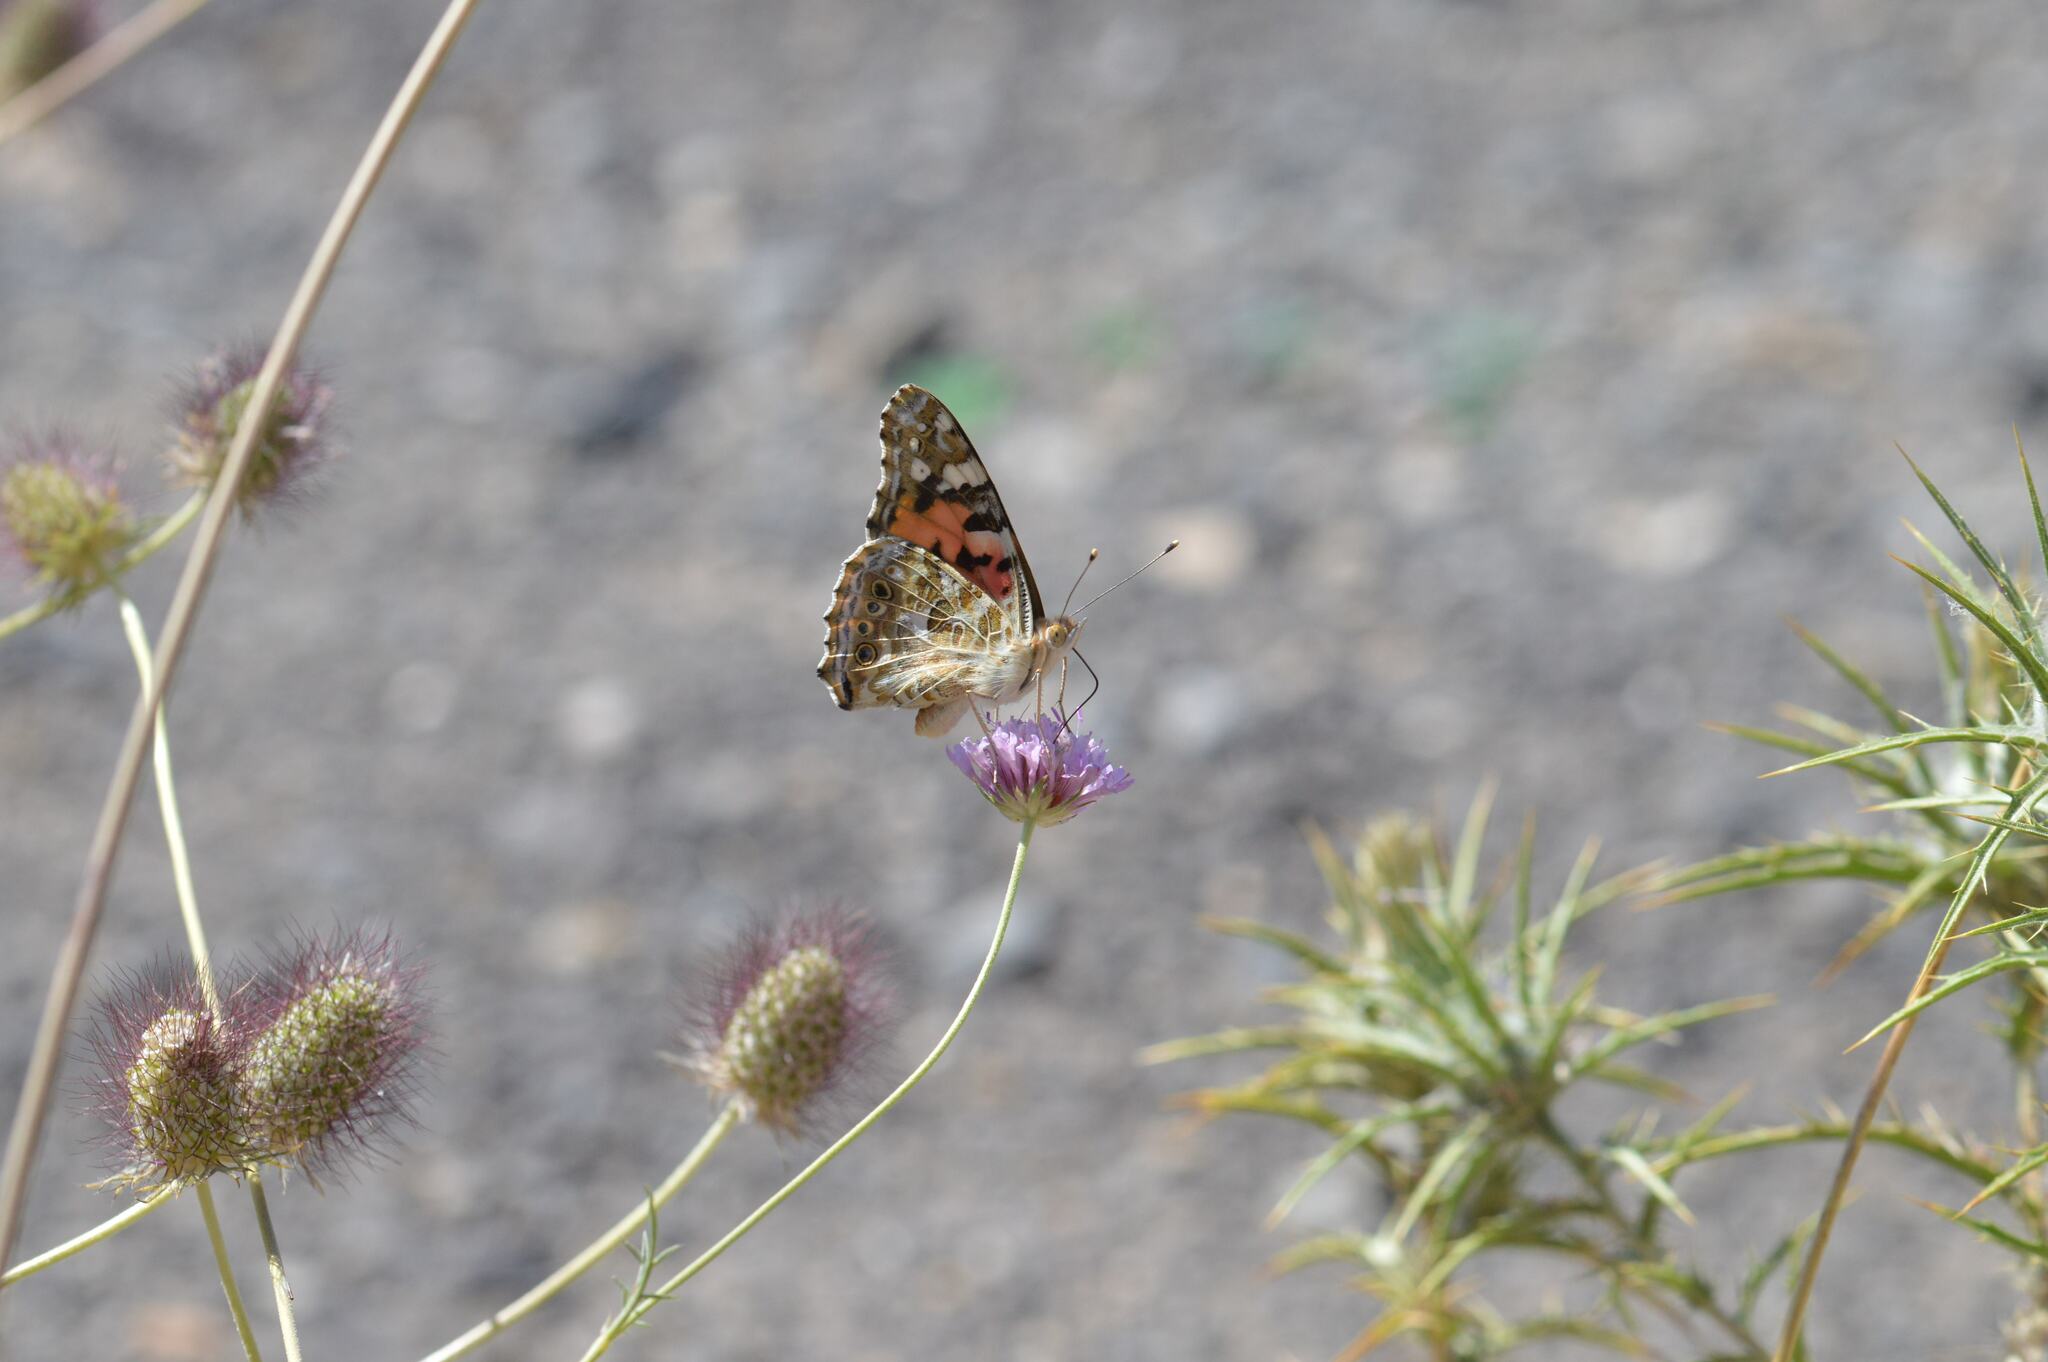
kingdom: Animalia
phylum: Arthropoda
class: Insecta
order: Lepidoptera
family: Nymphalidae
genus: Vanessa
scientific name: Vanessa cardui
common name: Painted lady
